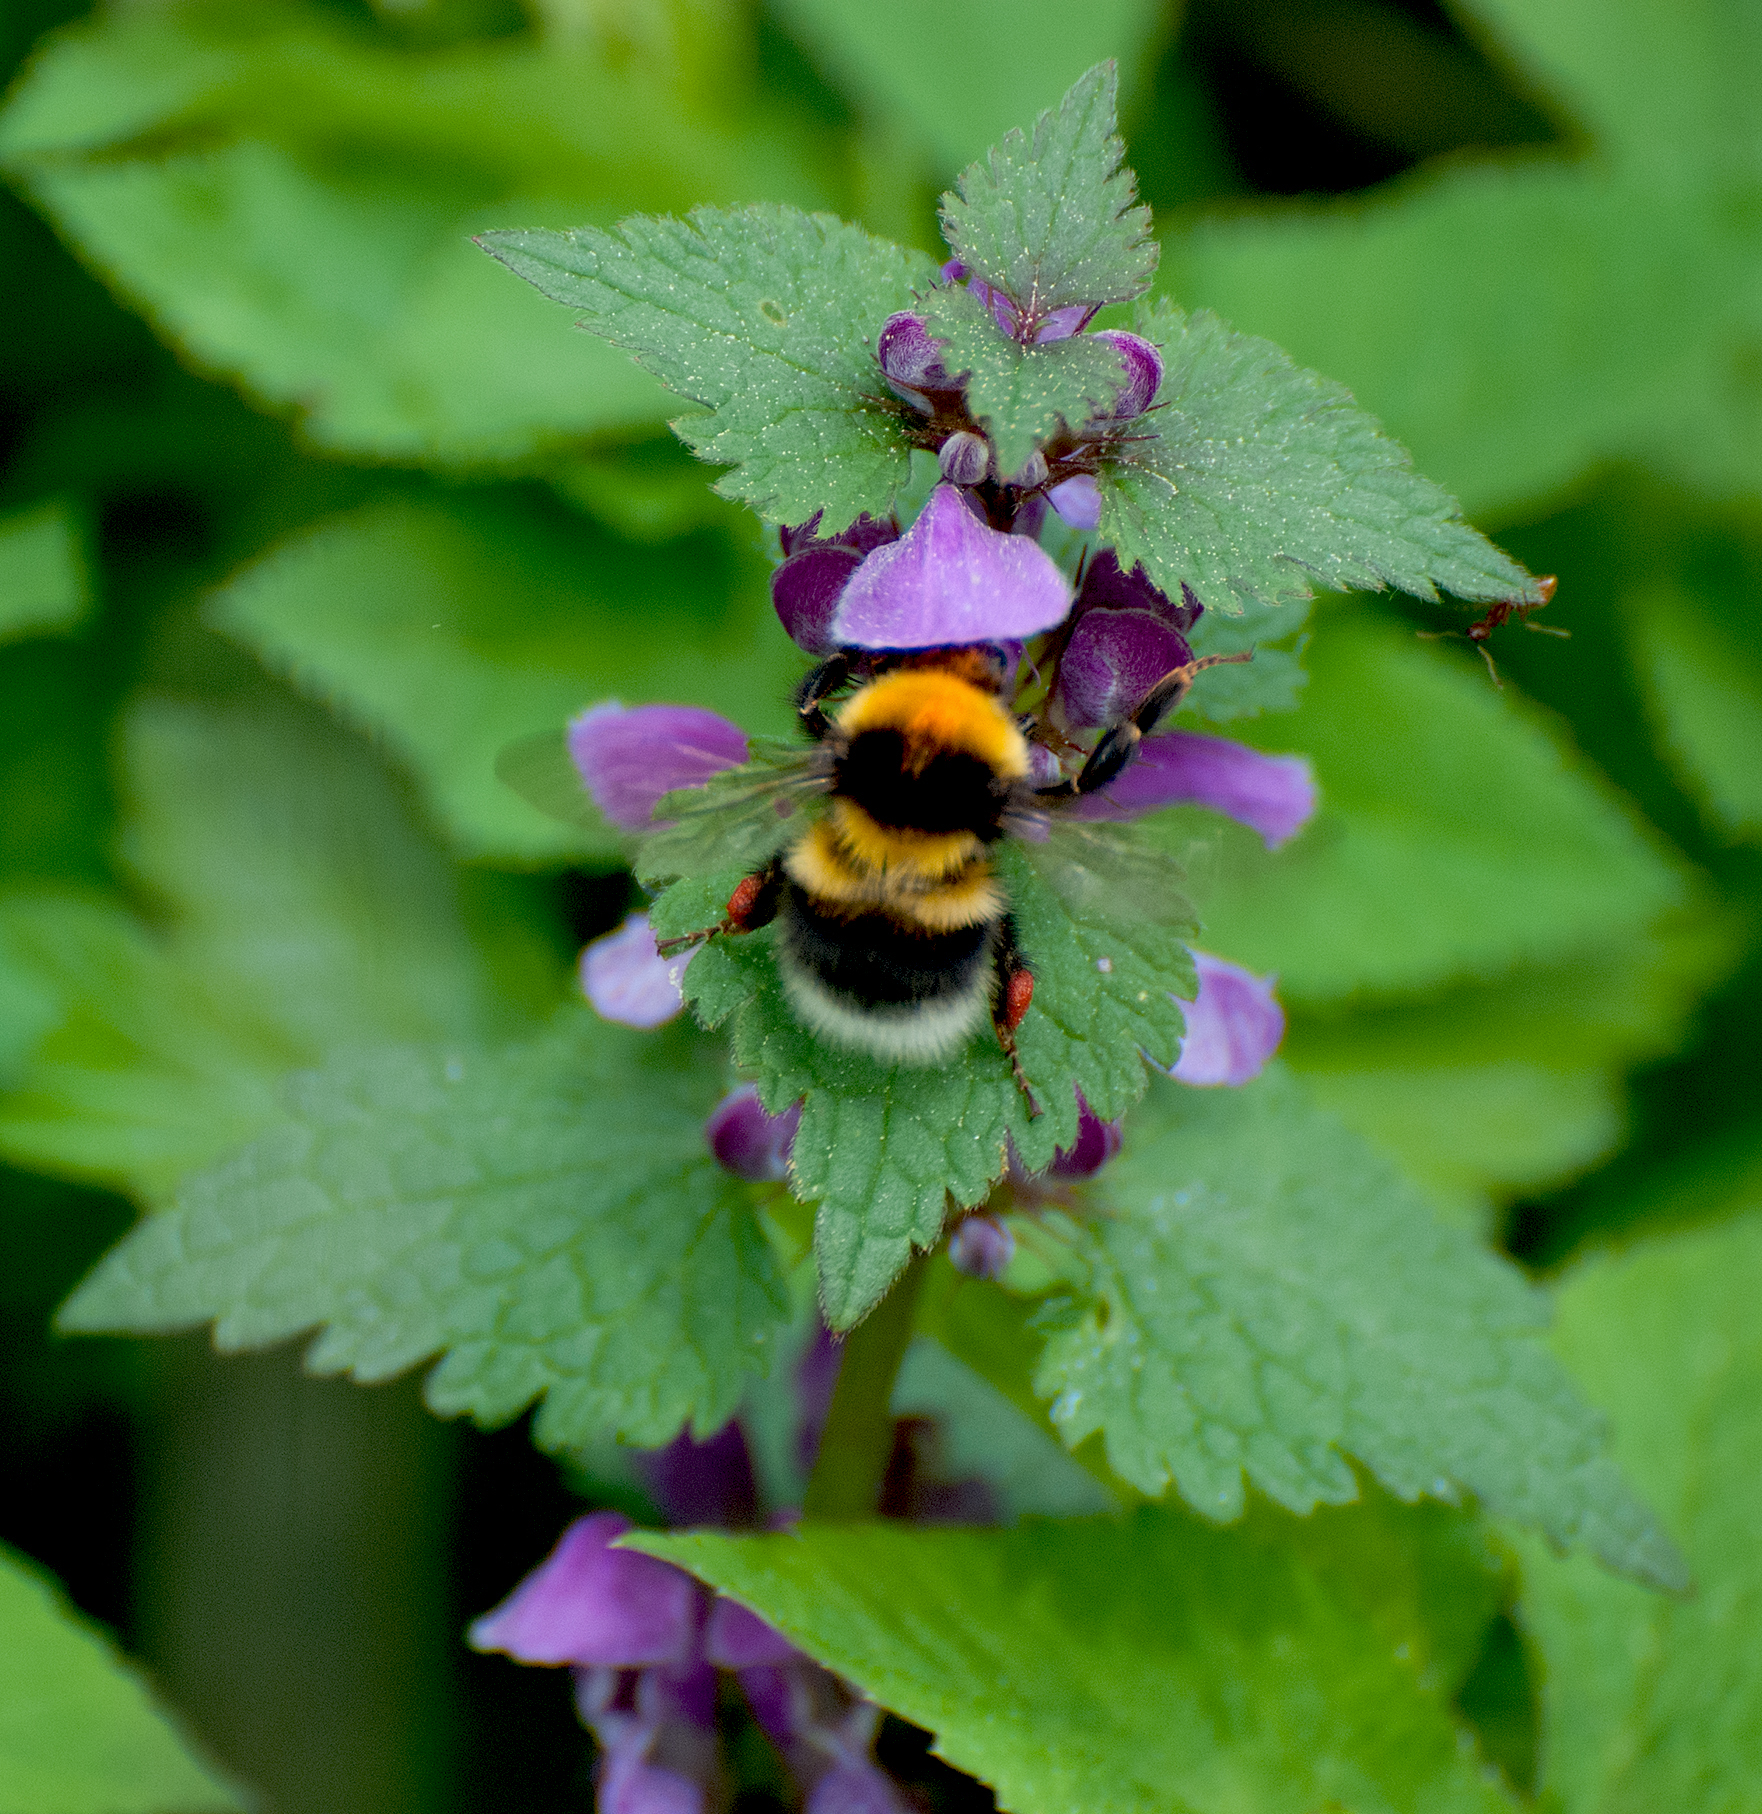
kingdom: Animalia
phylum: Arthropoda
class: Insecta
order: Hymenoptera
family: Apidae
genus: Bombus
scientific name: Bombus hortorum
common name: Garden bumblebee
